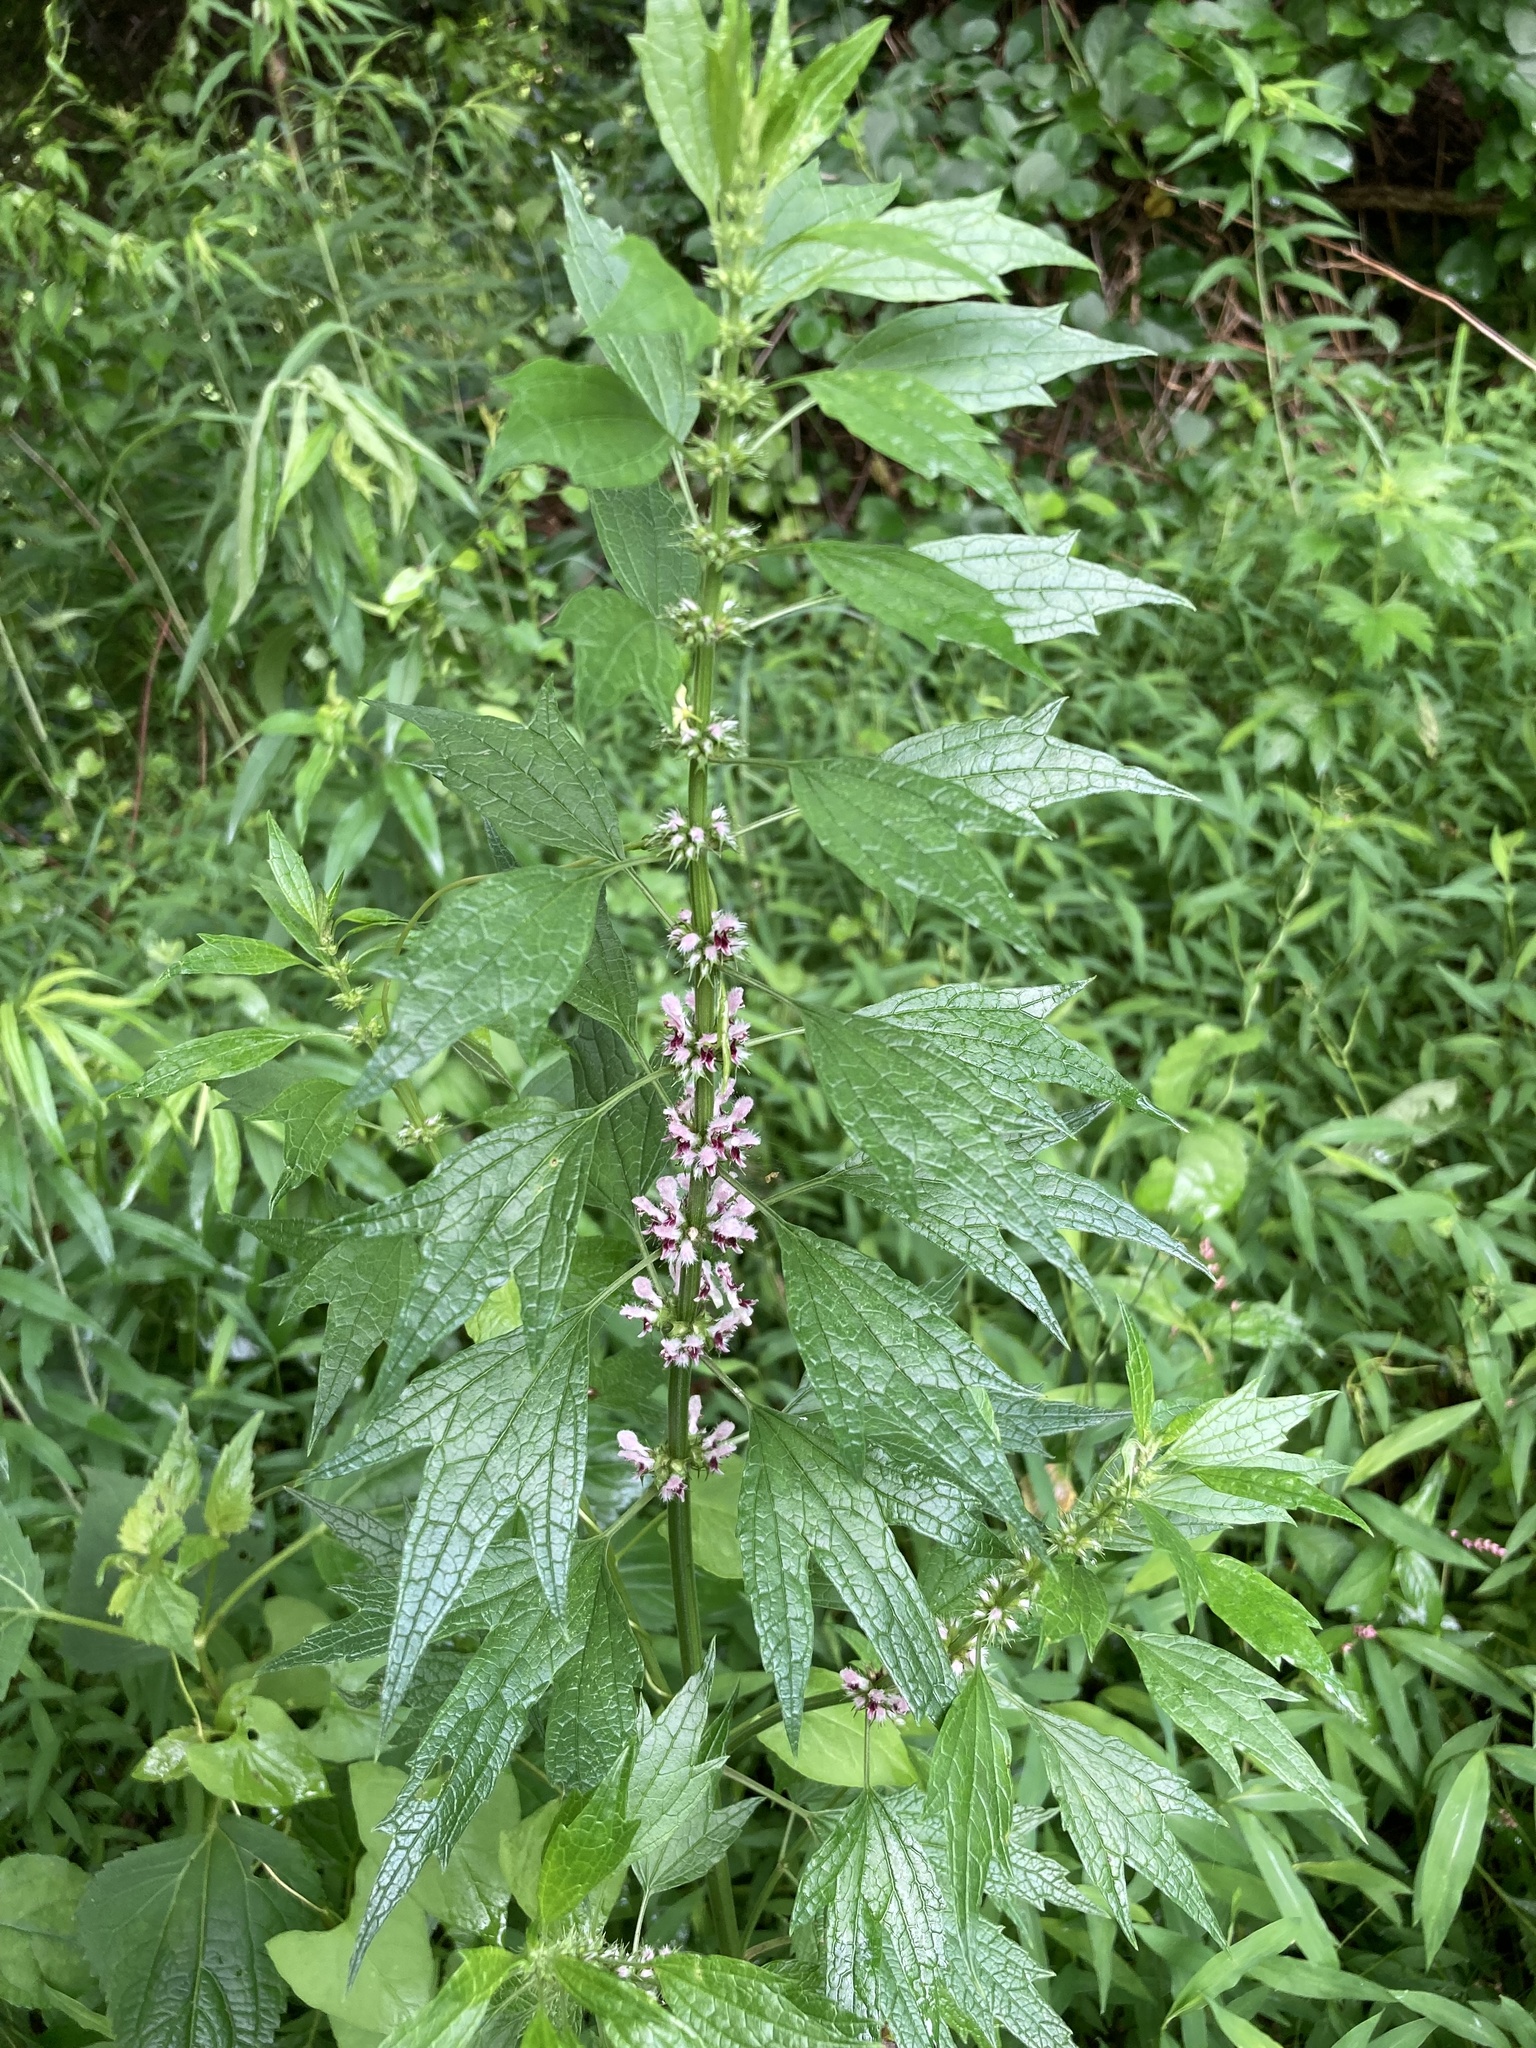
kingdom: Plantae
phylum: Tracheophyta
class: Magnoliopsida
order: Lamiales
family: Lamiaceae
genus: Leonurus
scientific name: Leonurus cardiaca
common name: Motherwort
